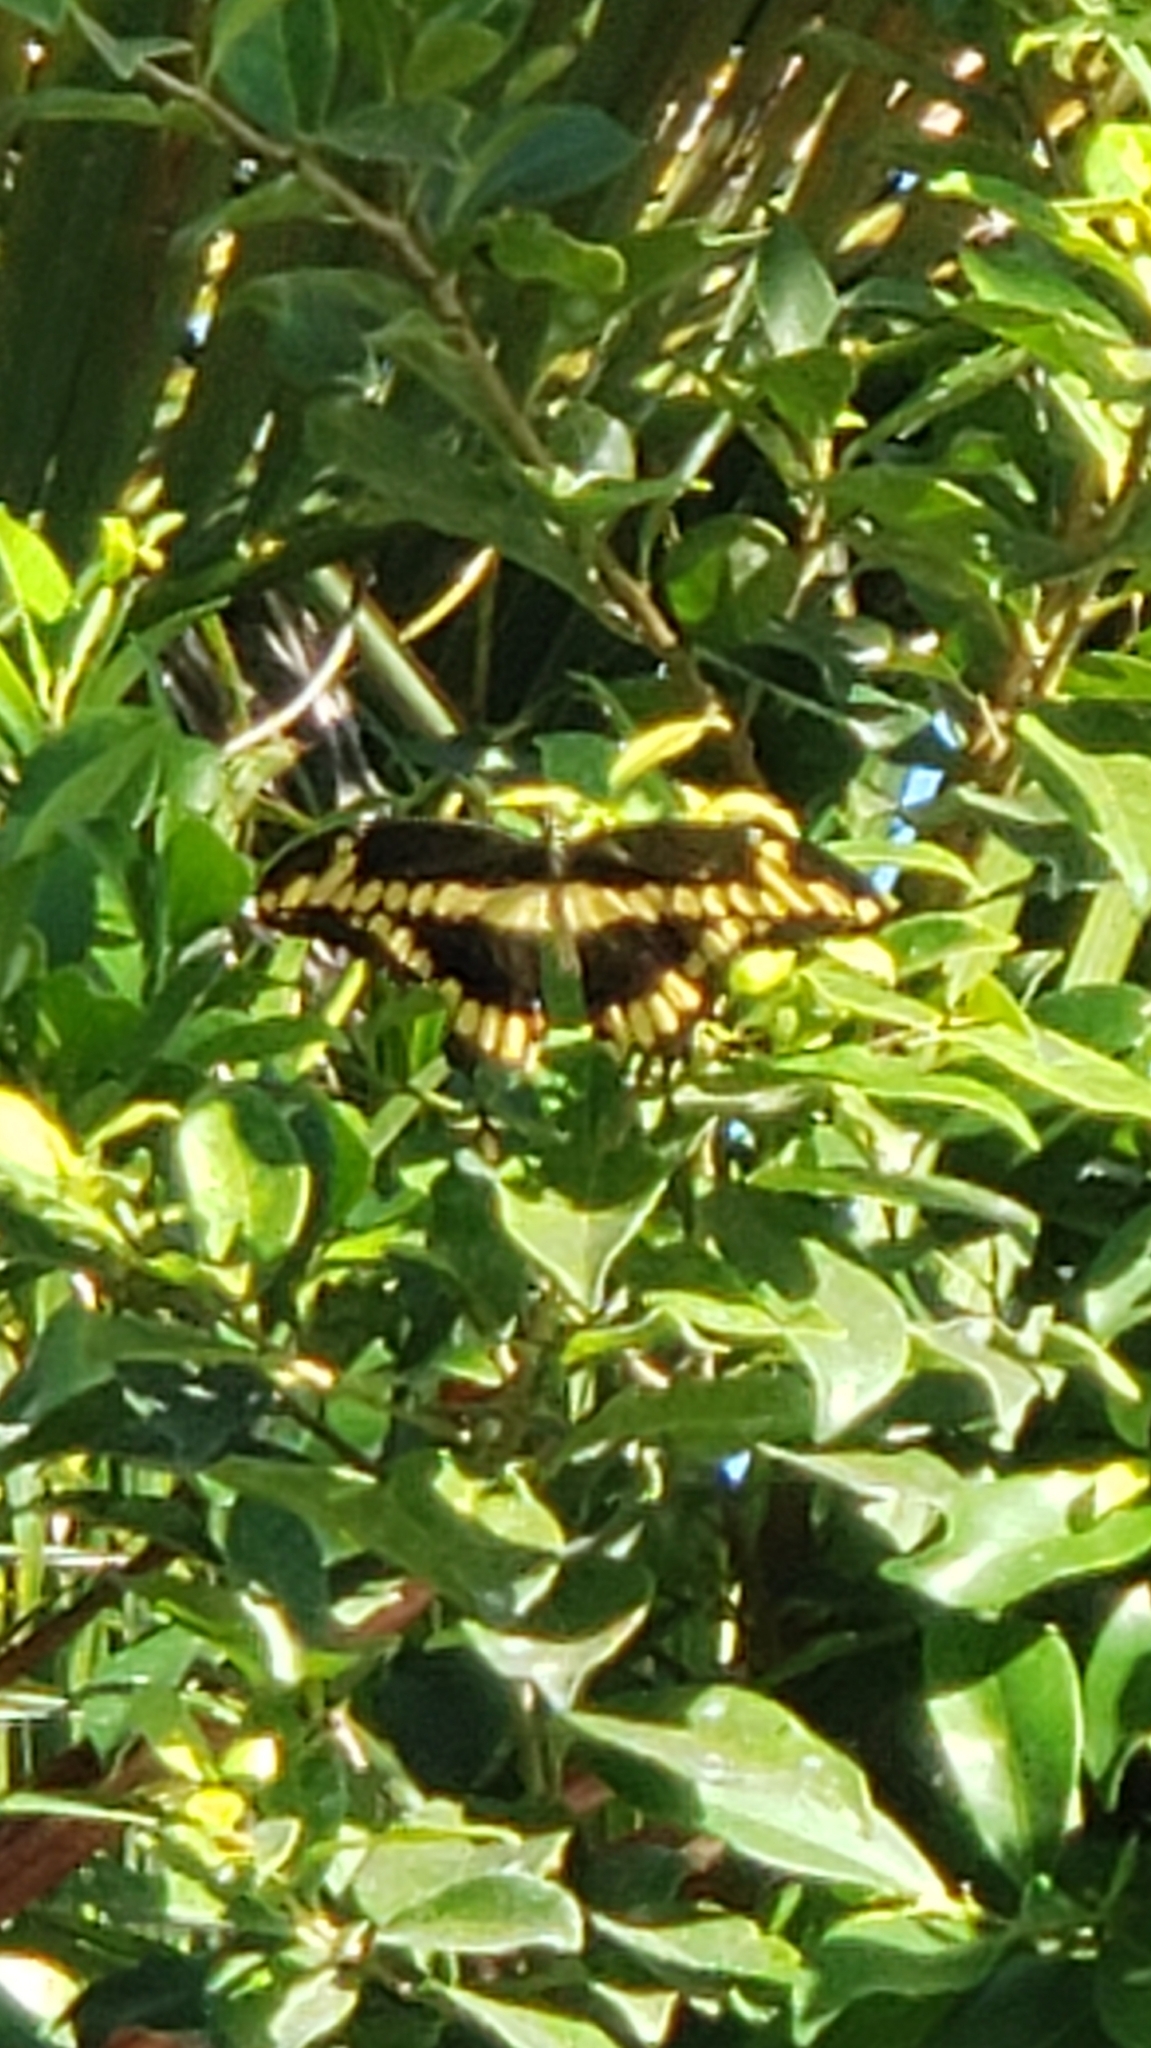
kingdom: Animalia
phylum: Arthropoda
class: Insecta
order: Lepidoptera
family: Papilionidae
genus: Papilio
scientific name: Papilio cresphontes
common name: Giant swallowtail
